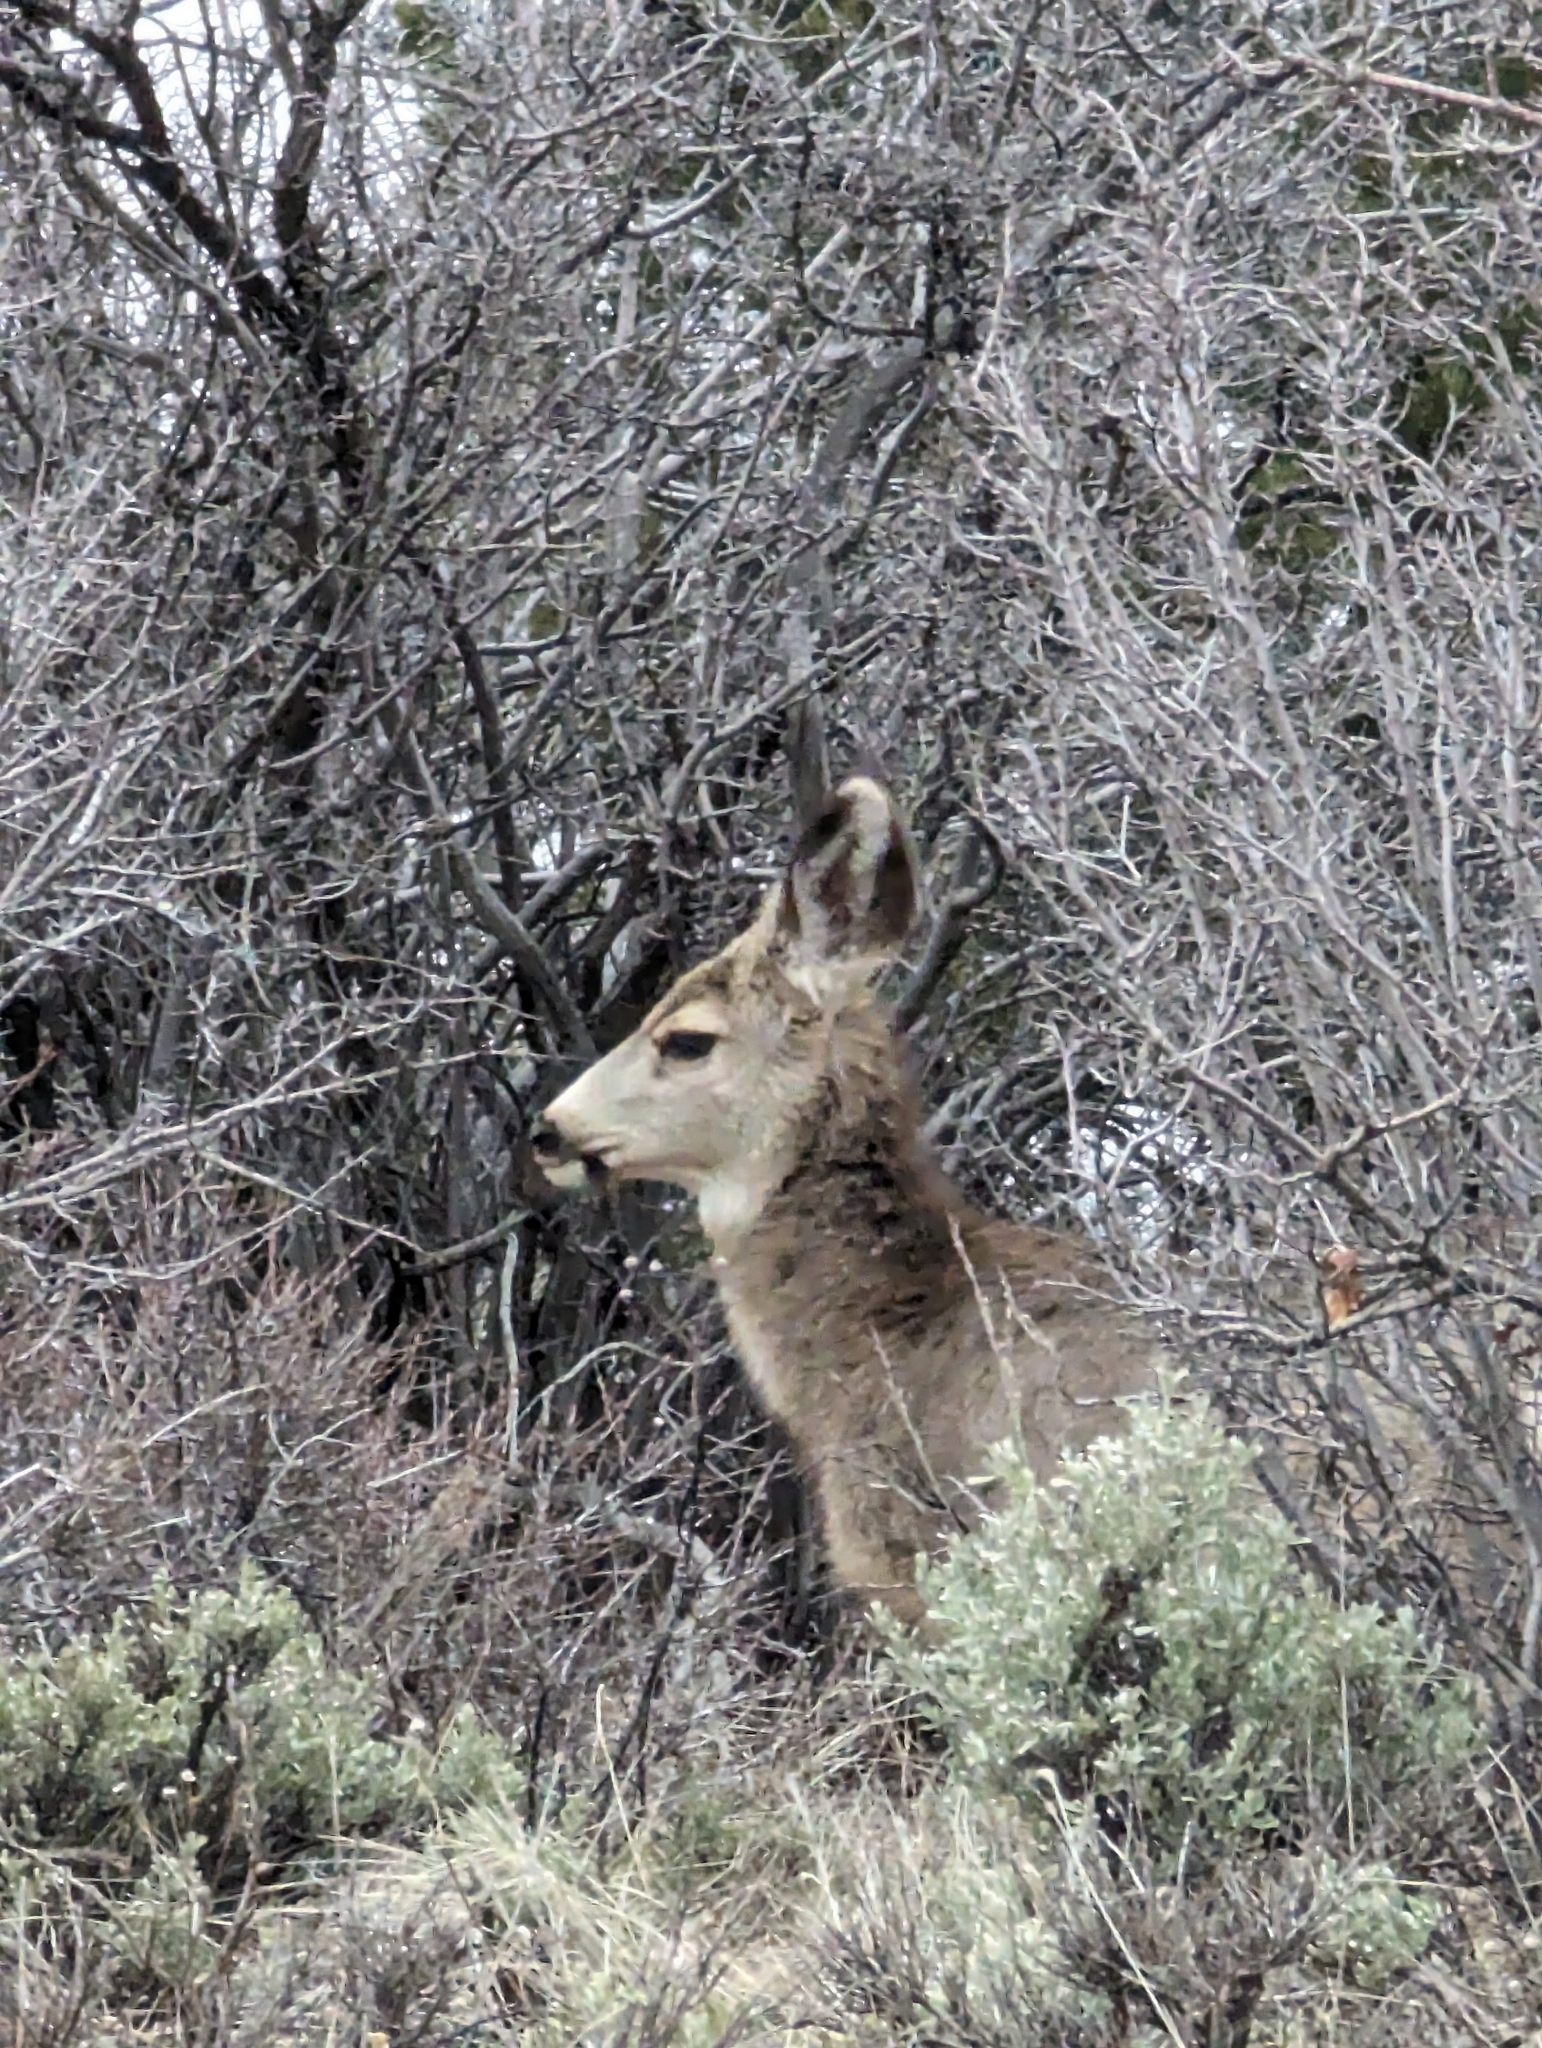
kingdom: Animalia
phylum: Chordata
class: Mammalia
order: Artiodactyla
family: Cervidae
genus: Odocoileus
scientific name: Odocoileus hemionus
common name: Mule deer
